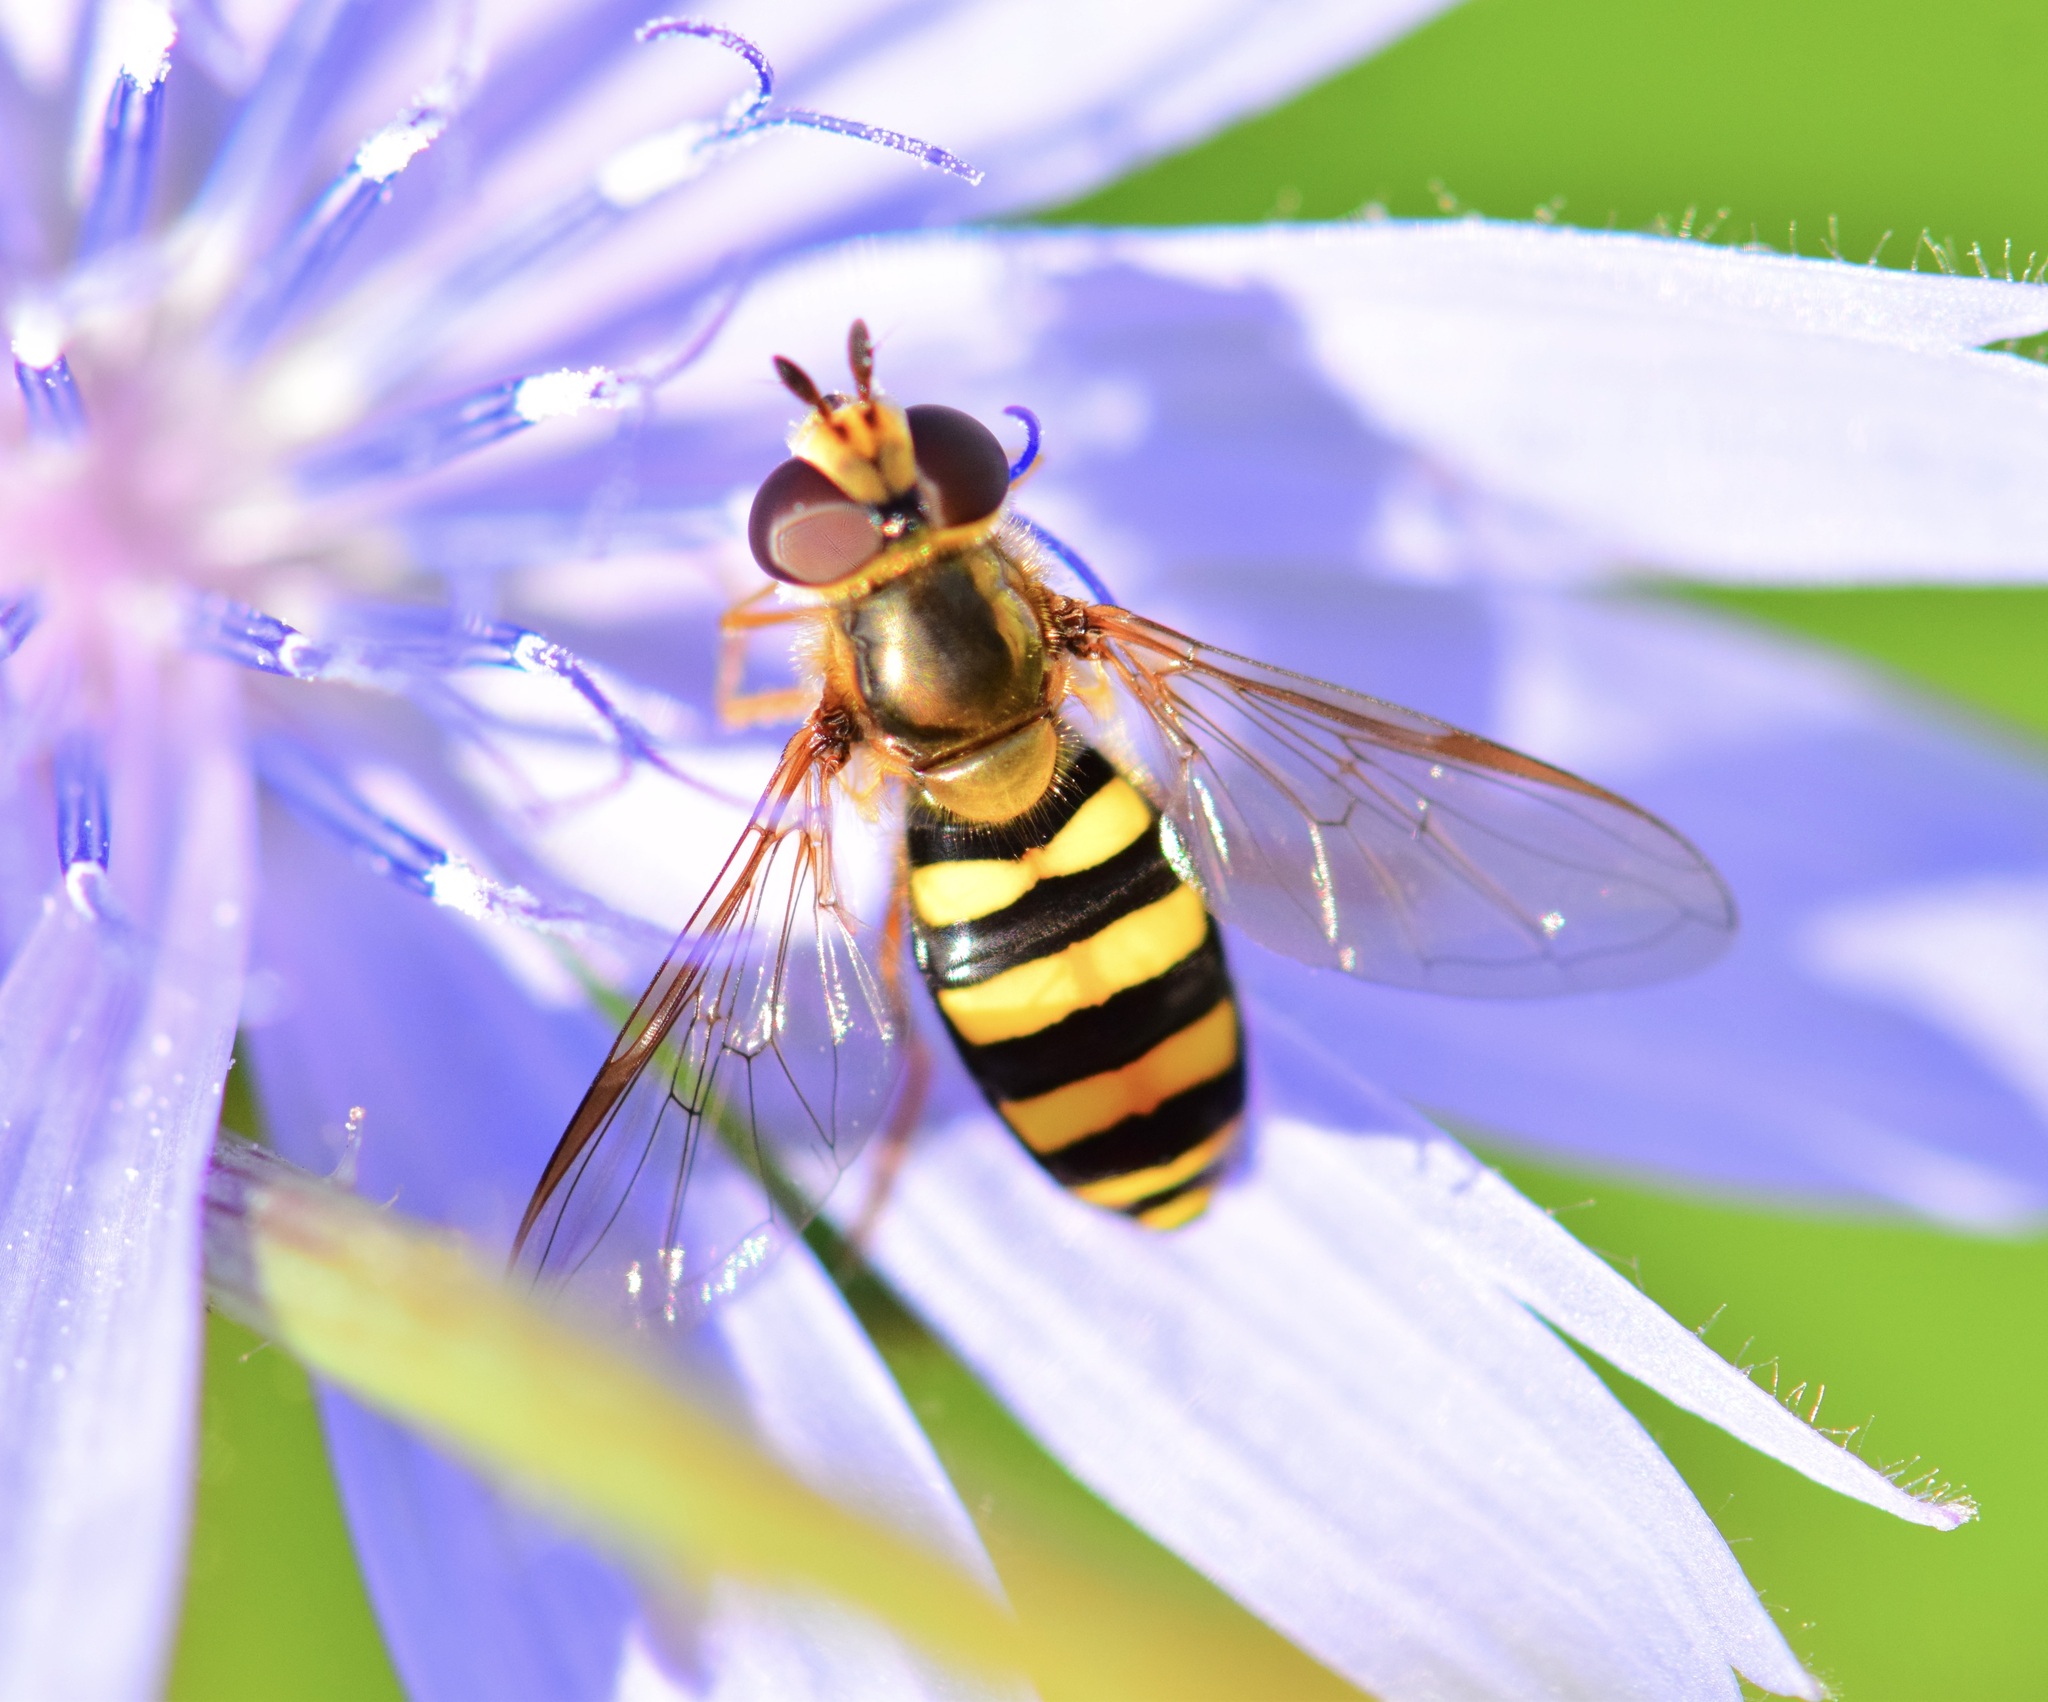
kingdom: Animalia
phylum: Arthropoda
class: Insecta
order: Diptera
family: Syrphidae
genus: Eupeodes
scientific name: Eupeodes
